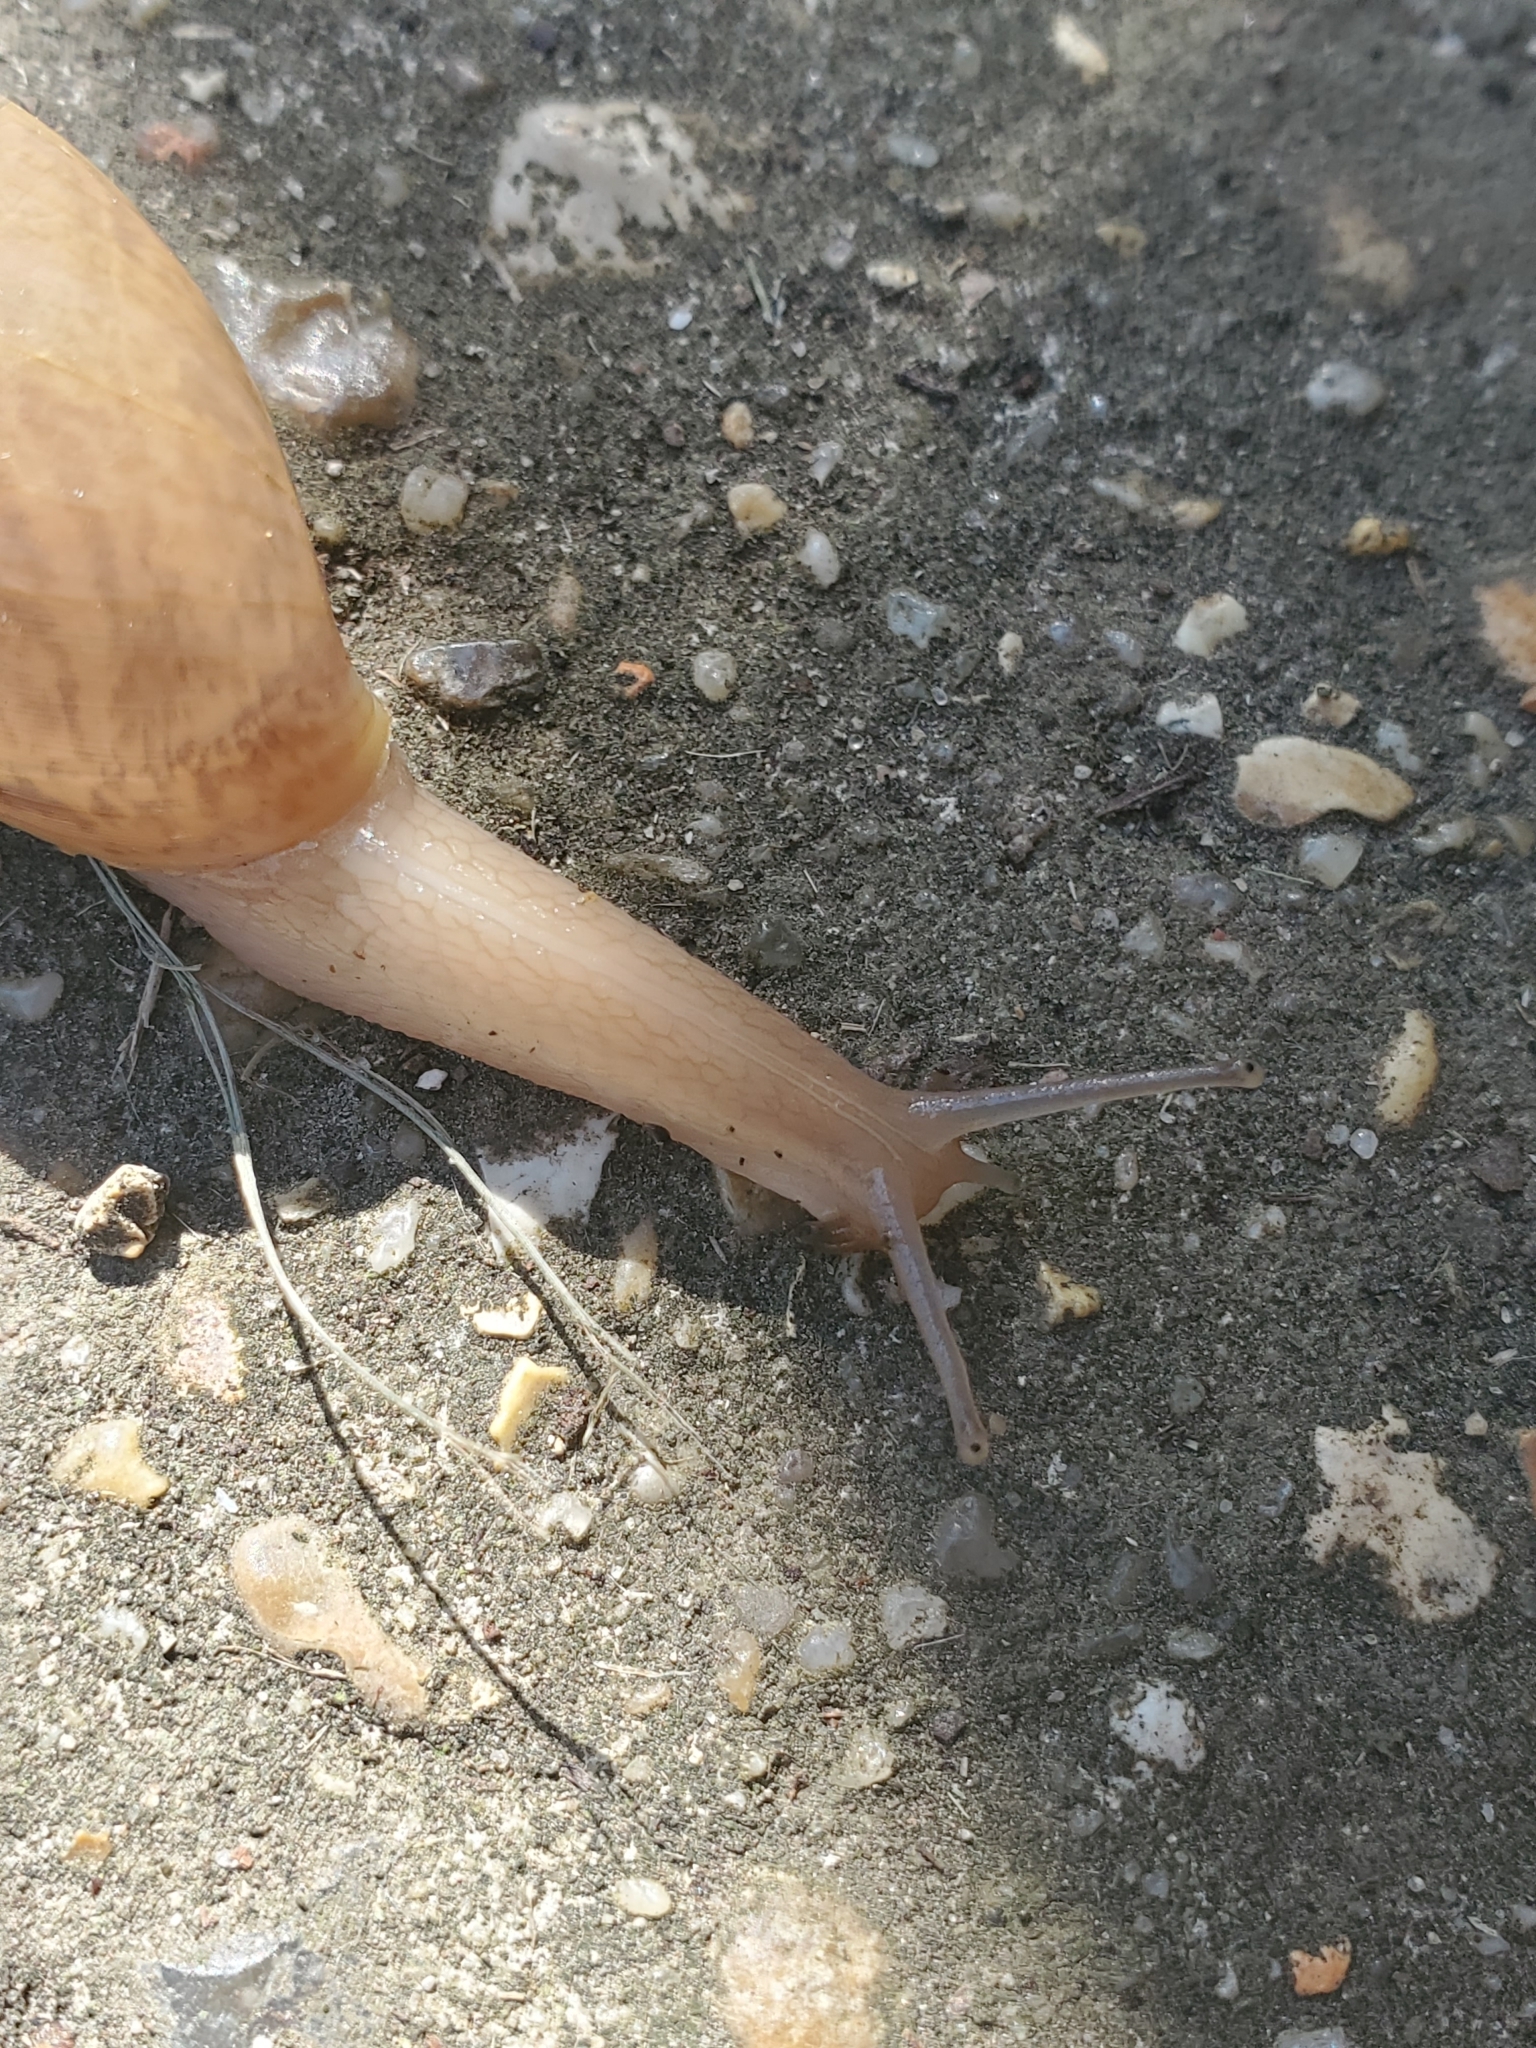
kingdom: Animalia
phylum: Mollusca
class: Gastropoda
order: Stylommatophora
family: Spiraxidae
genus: Euglandina
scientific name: Euglandina rosea
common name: Rosy wolfsnail
